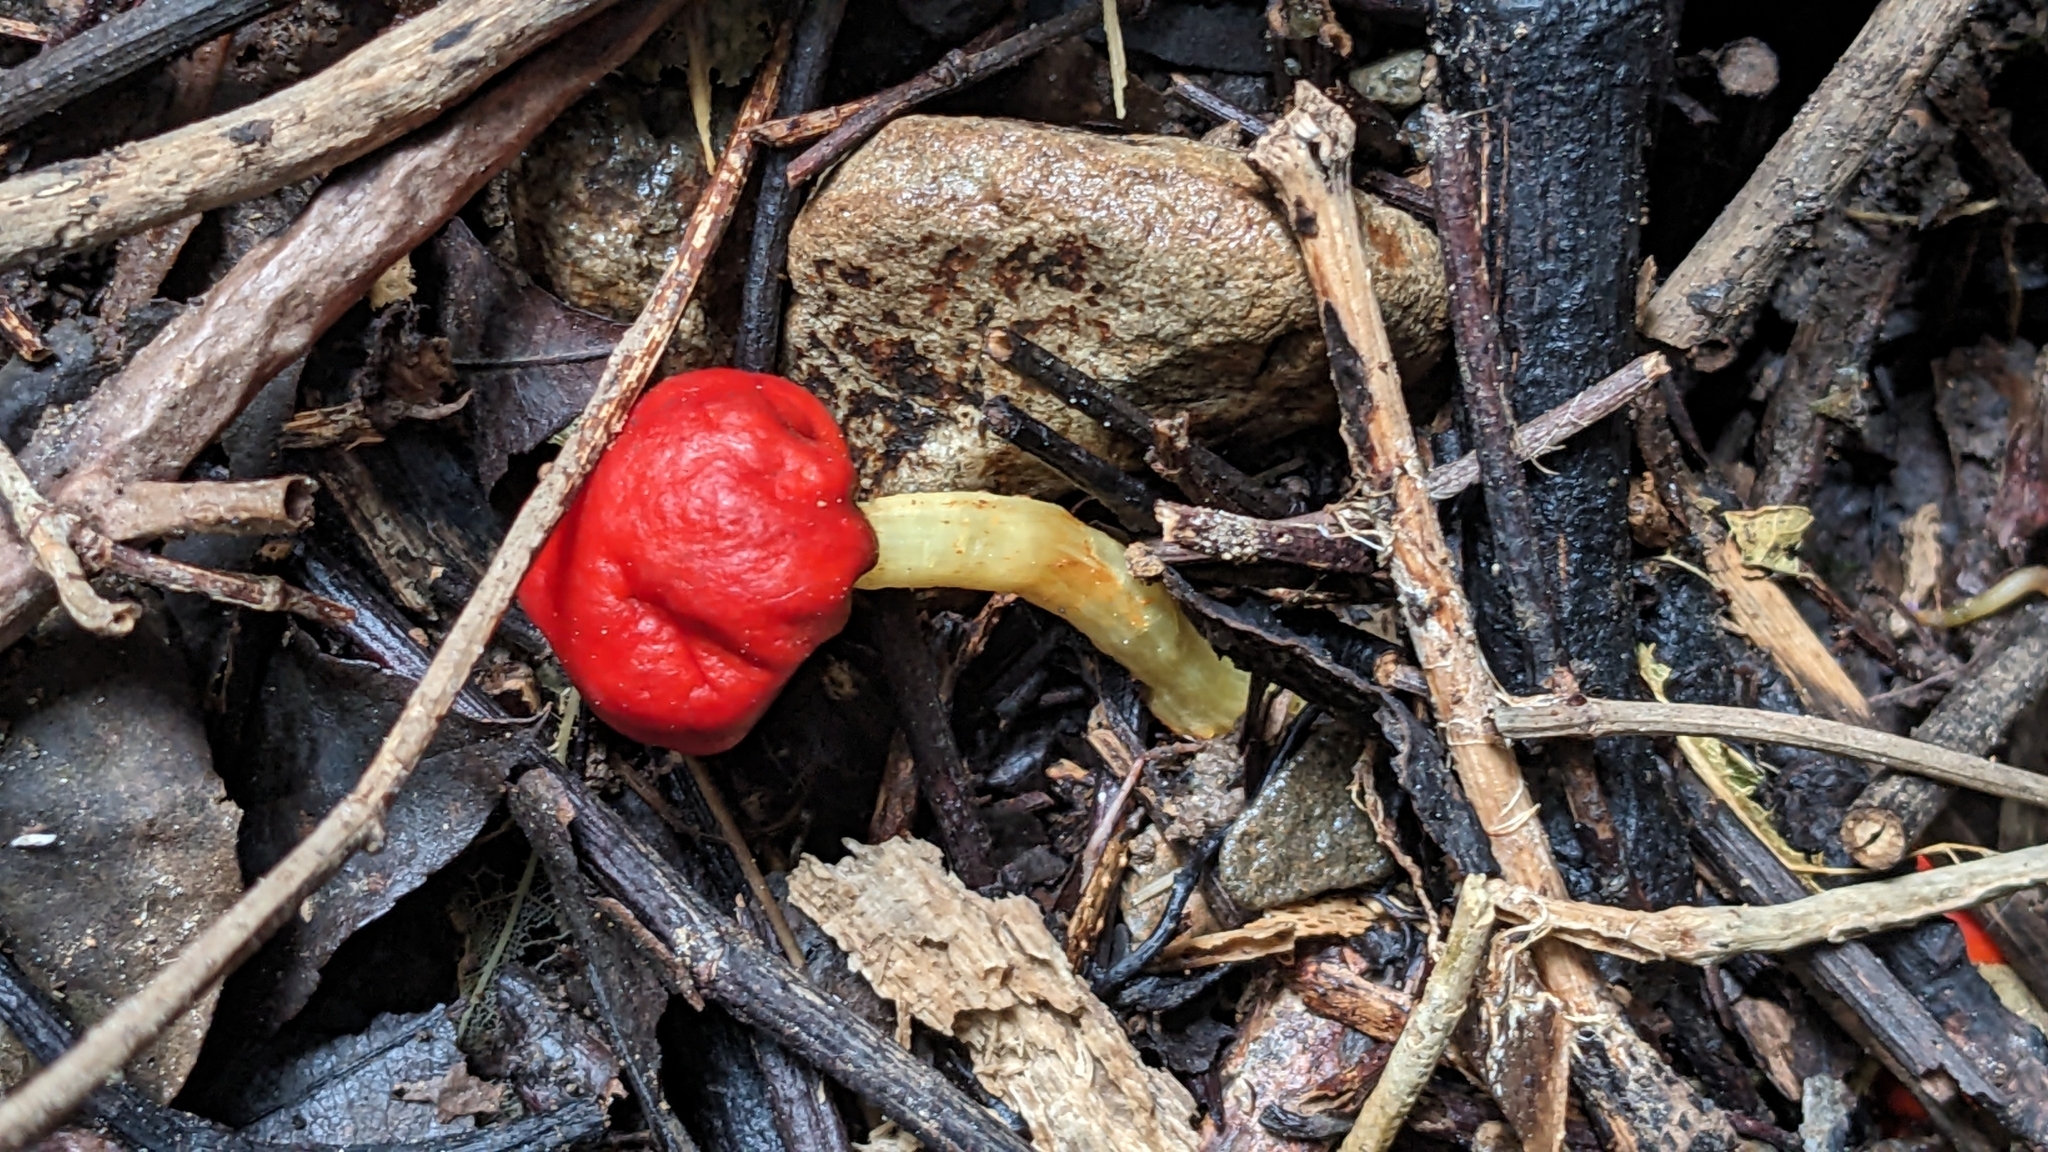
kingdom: Fungi
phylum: Basidiomycota
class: Agaricomycetes
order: Agaricales
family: Strophariaceae
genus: Leratiomyces
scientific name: Leratiomyces erythrocephalus
